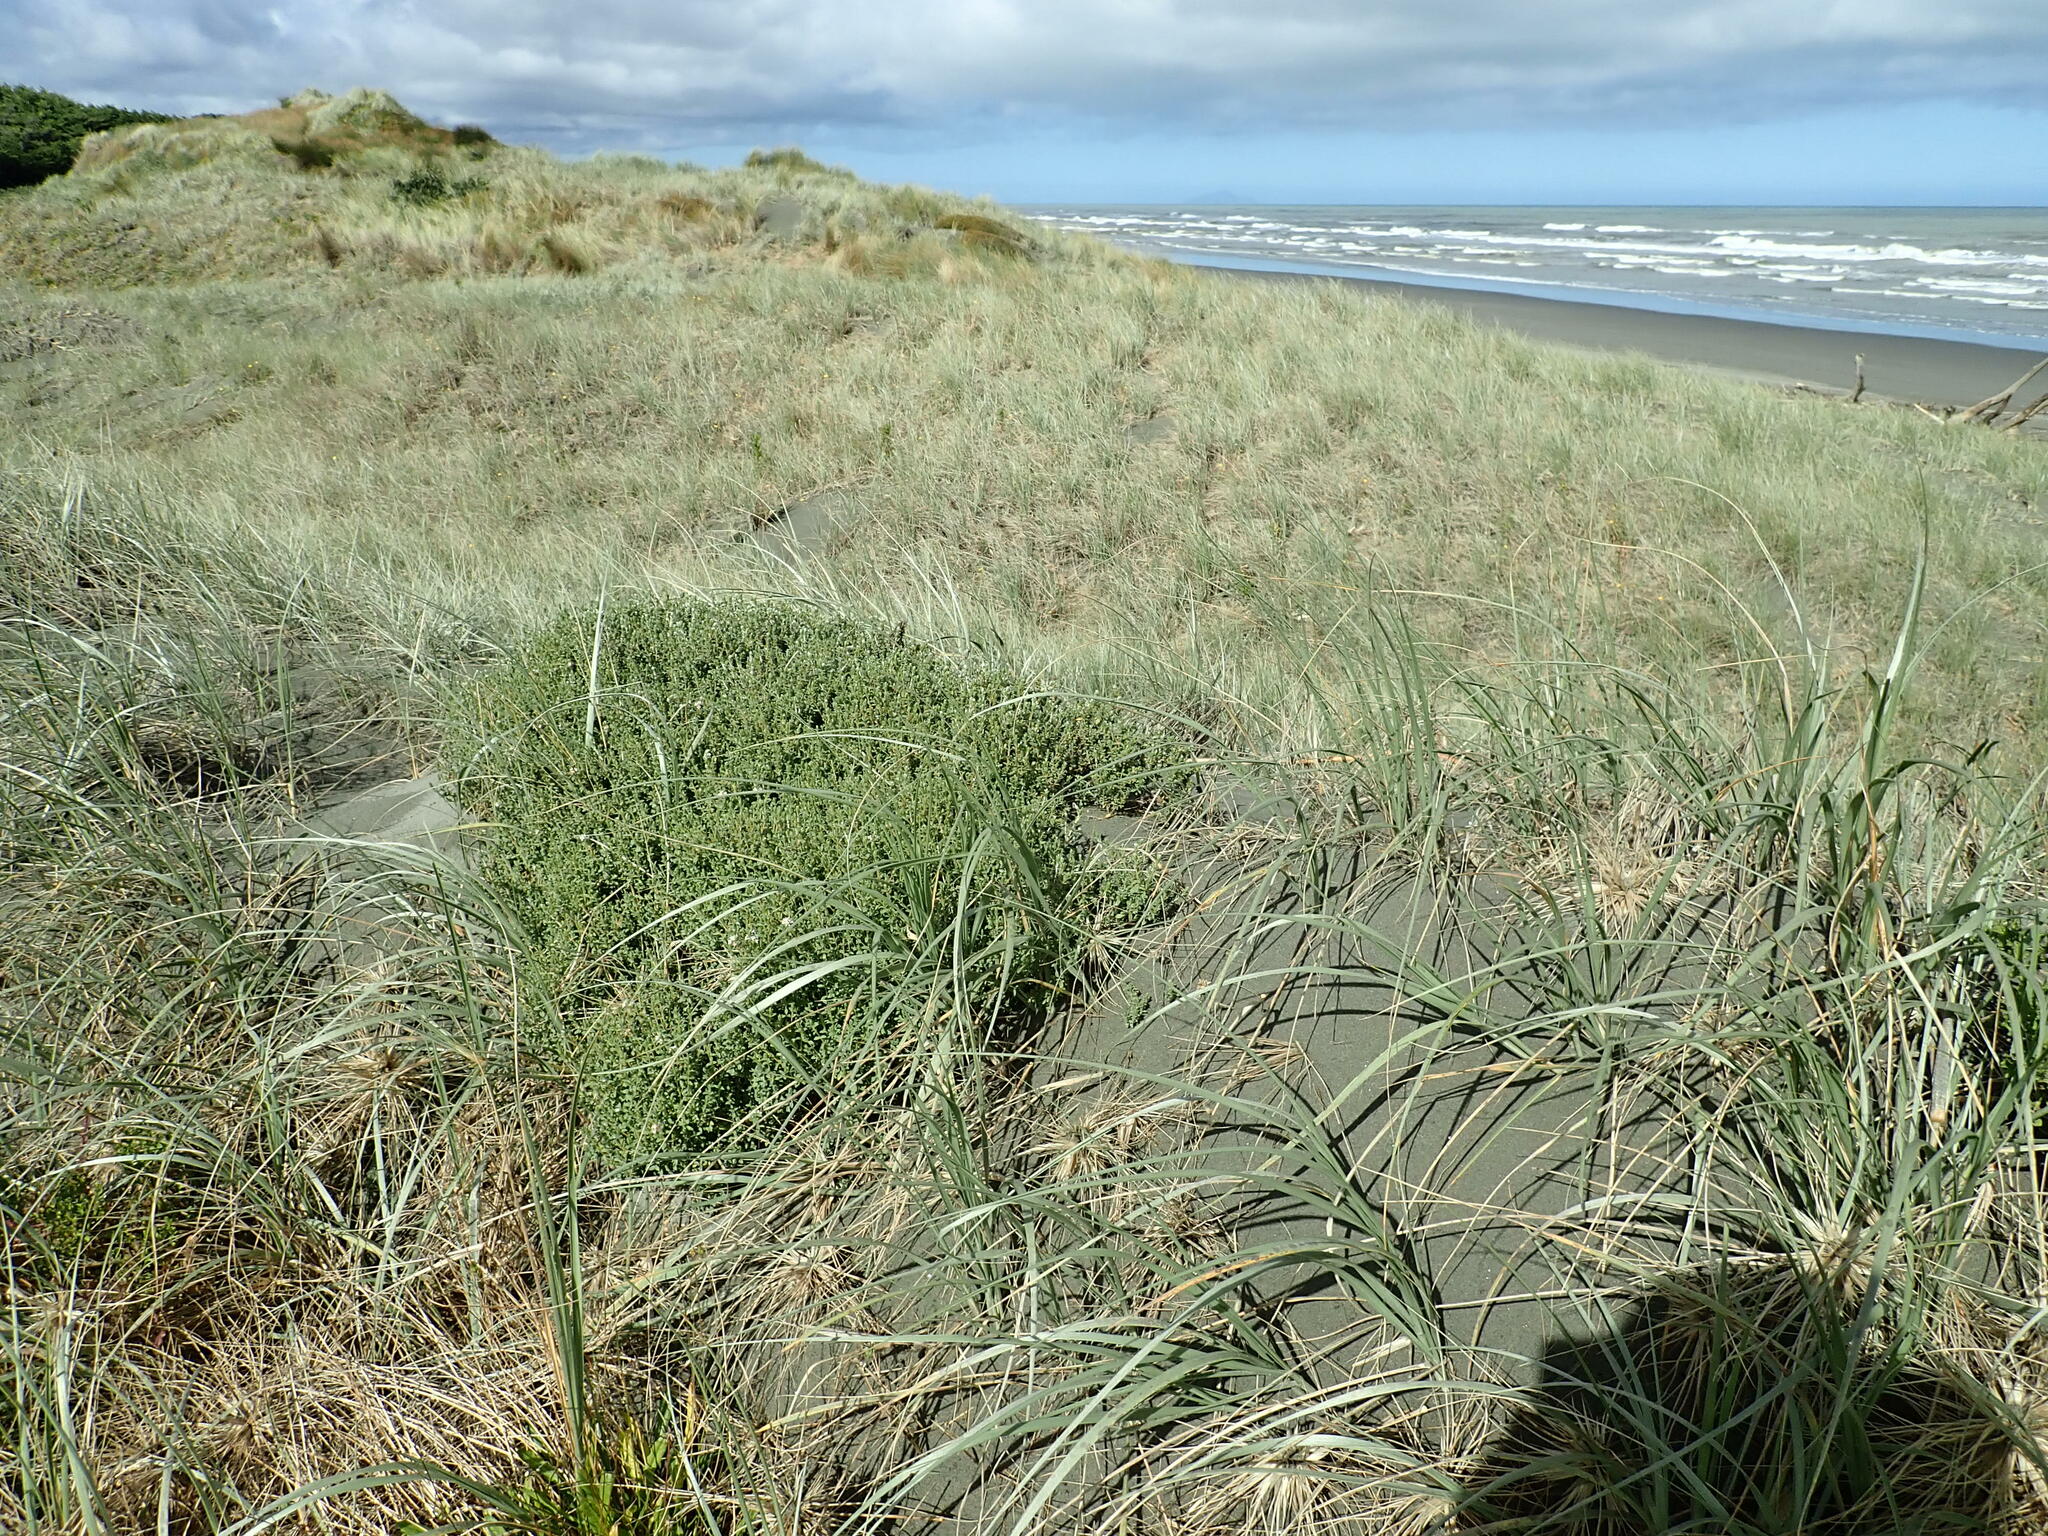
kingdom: Plantae
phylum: Tracheophyta
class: Magnoliopsida
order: Malvales
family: Thymelaeaceae
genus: Pimelea
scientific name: Pimelea villosa
